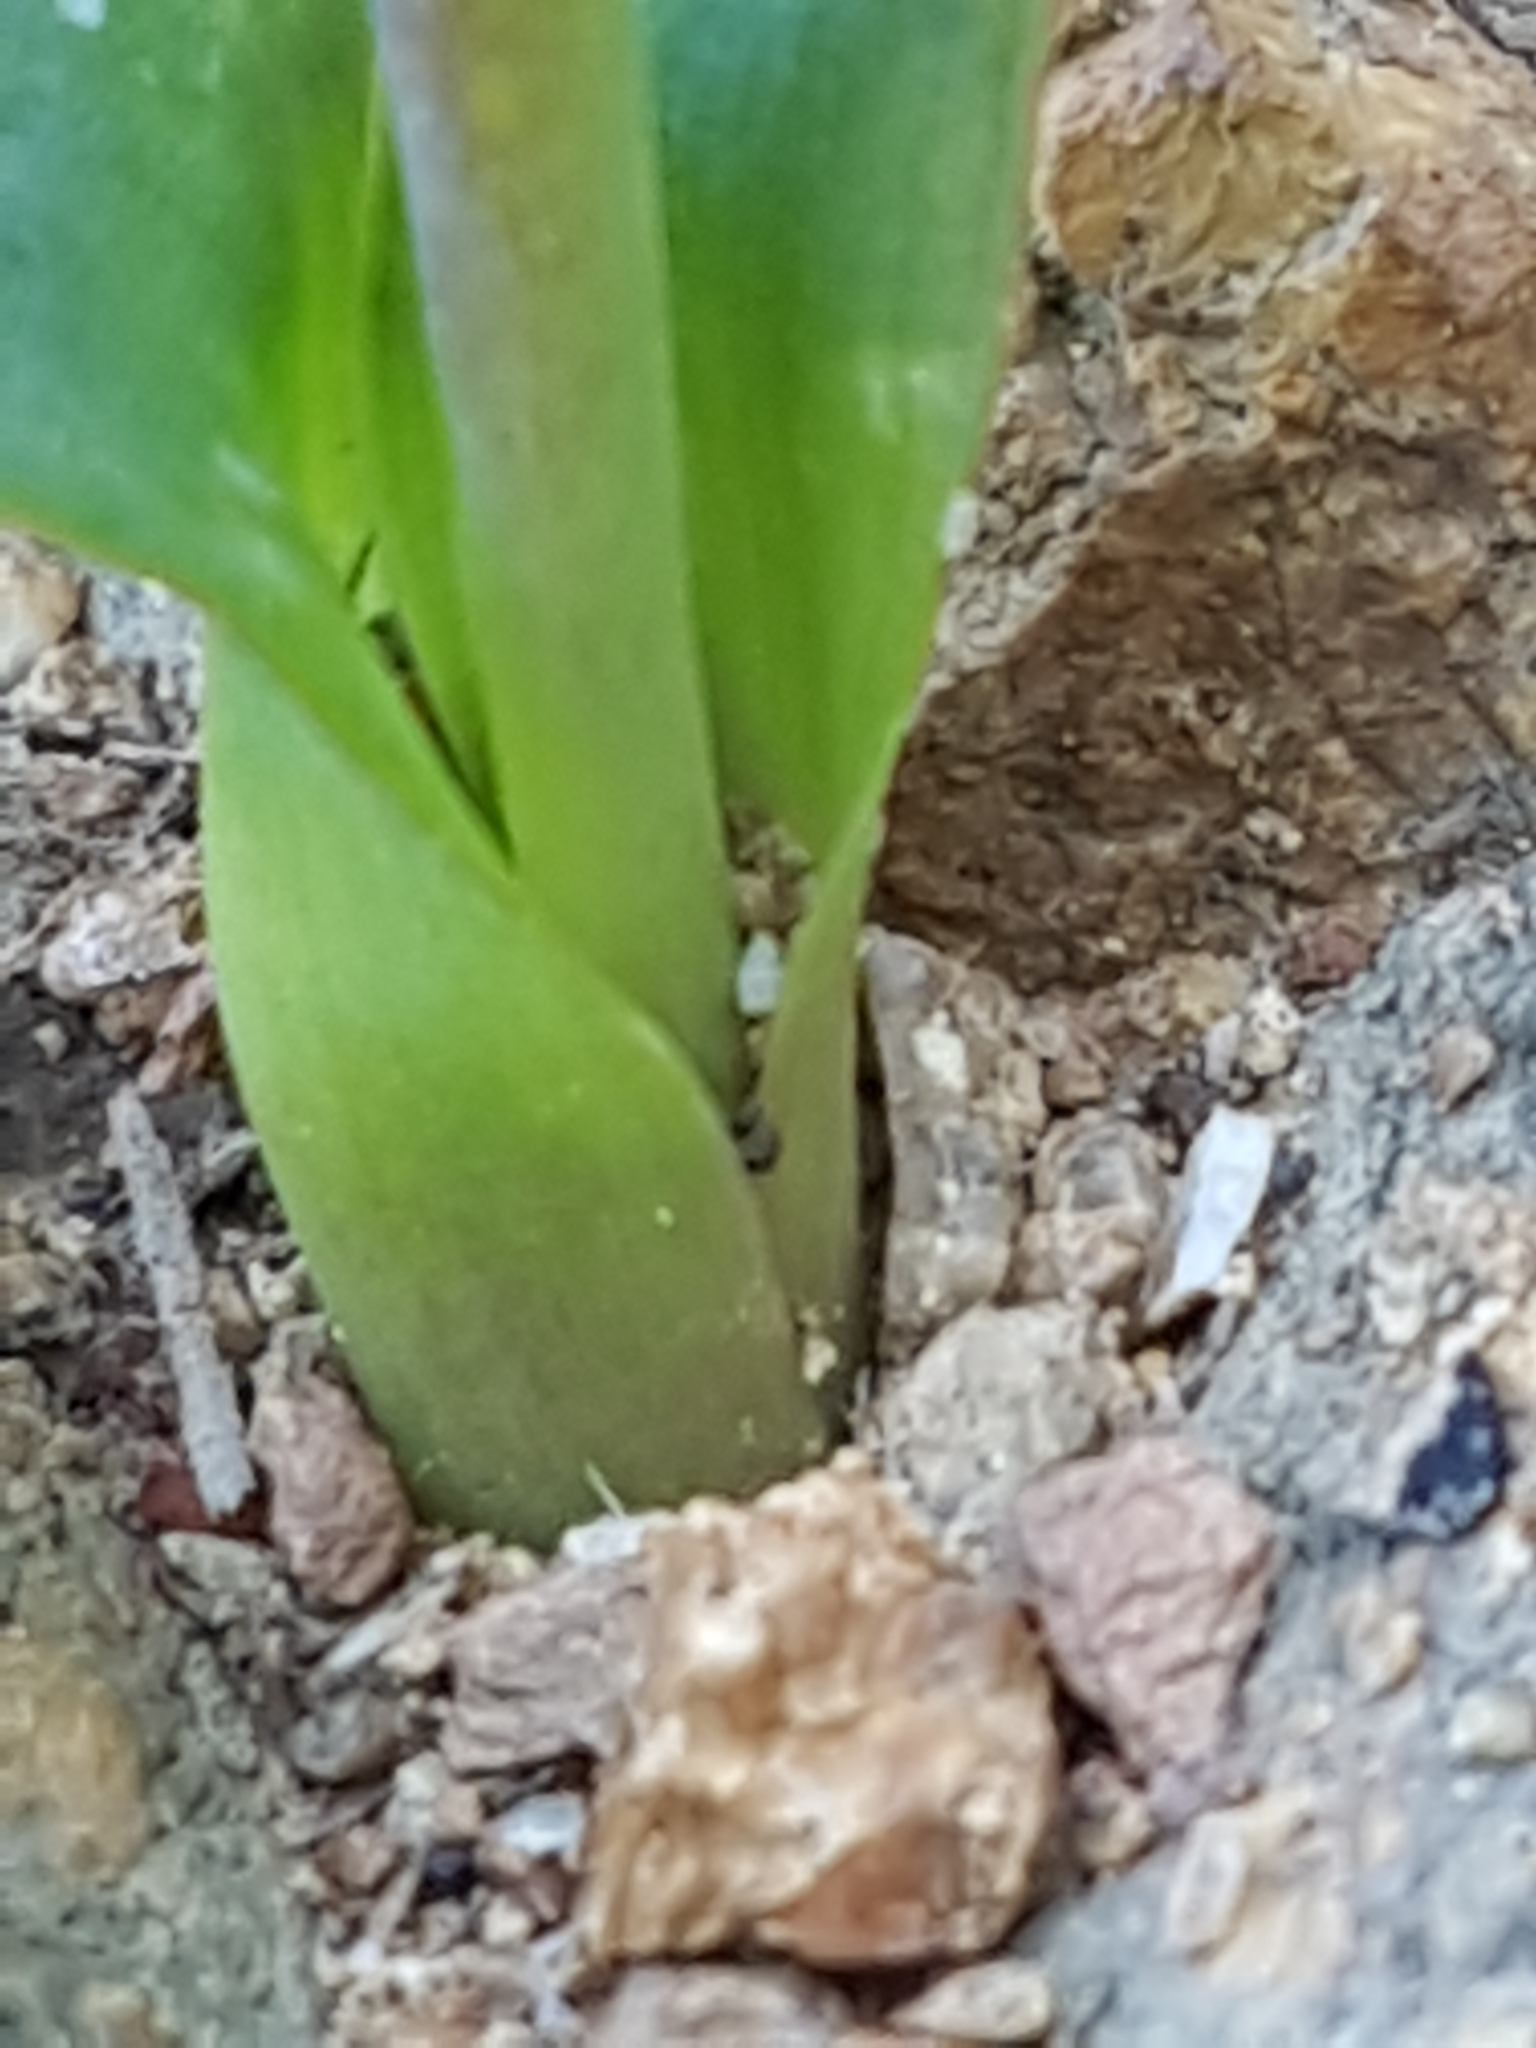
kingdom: Plantae
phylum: Tracheophyta
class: Liliopsida
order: Asparagales
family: Asparagaceae
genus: Lachenalia
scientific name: Lachenalia lutea
